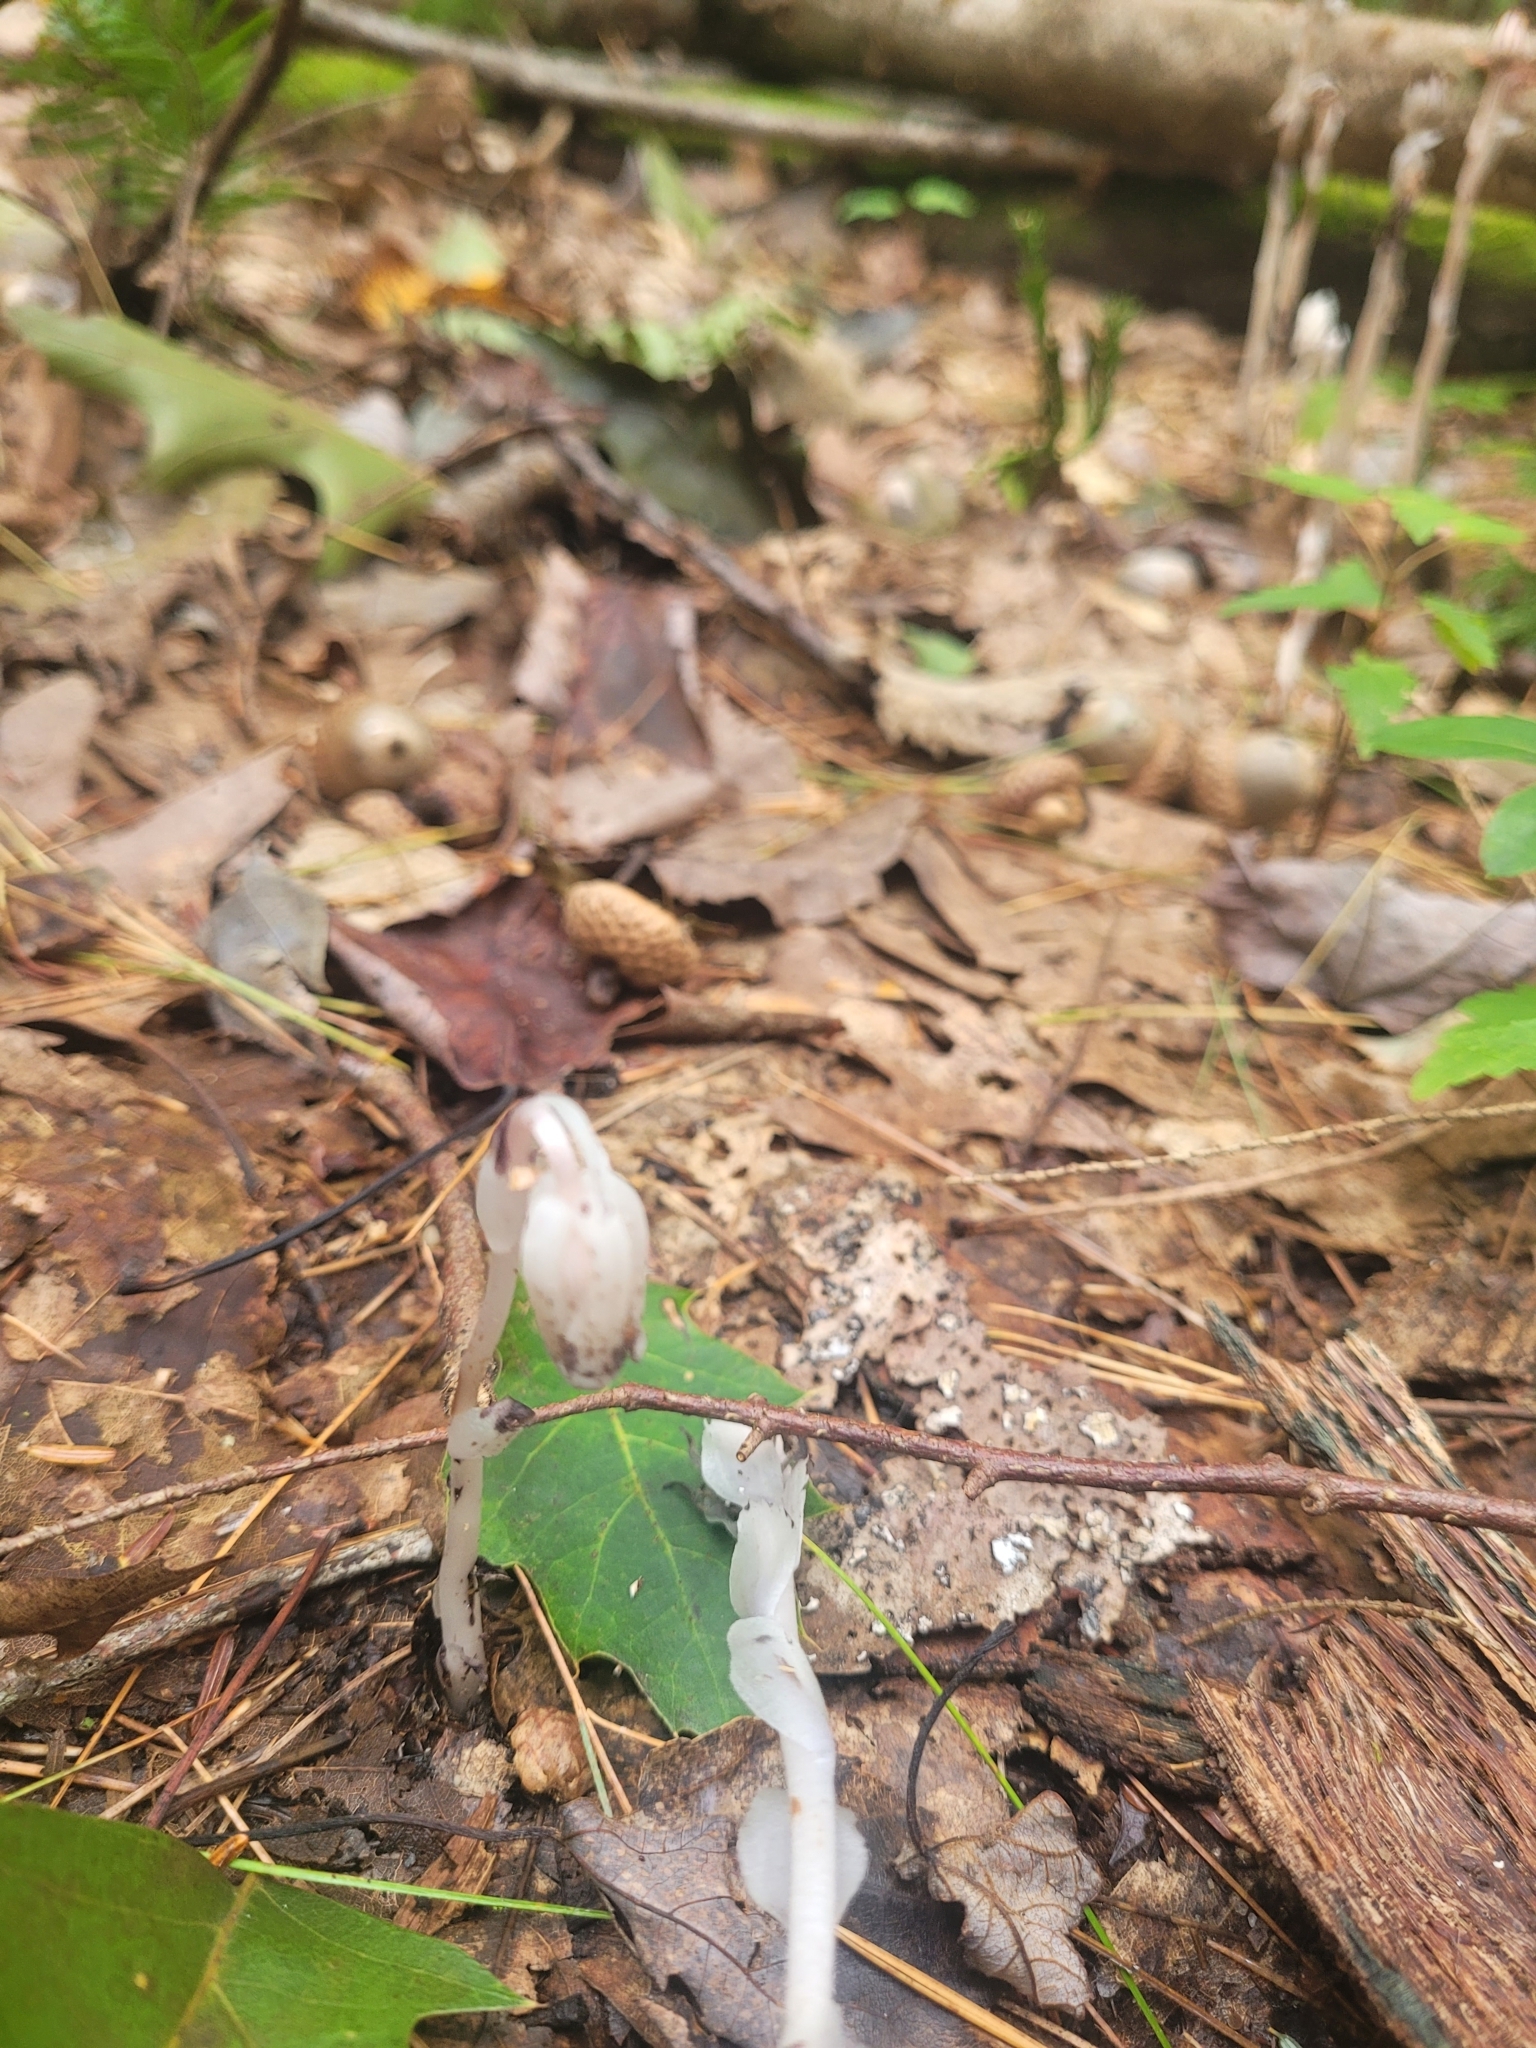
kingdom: Plantae
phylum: Tracheophyta
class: Magnoliopsida
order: Ericales
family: Ericaceae
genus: Monotropa
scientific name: Monotropa uniflora
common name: Convulsion root
